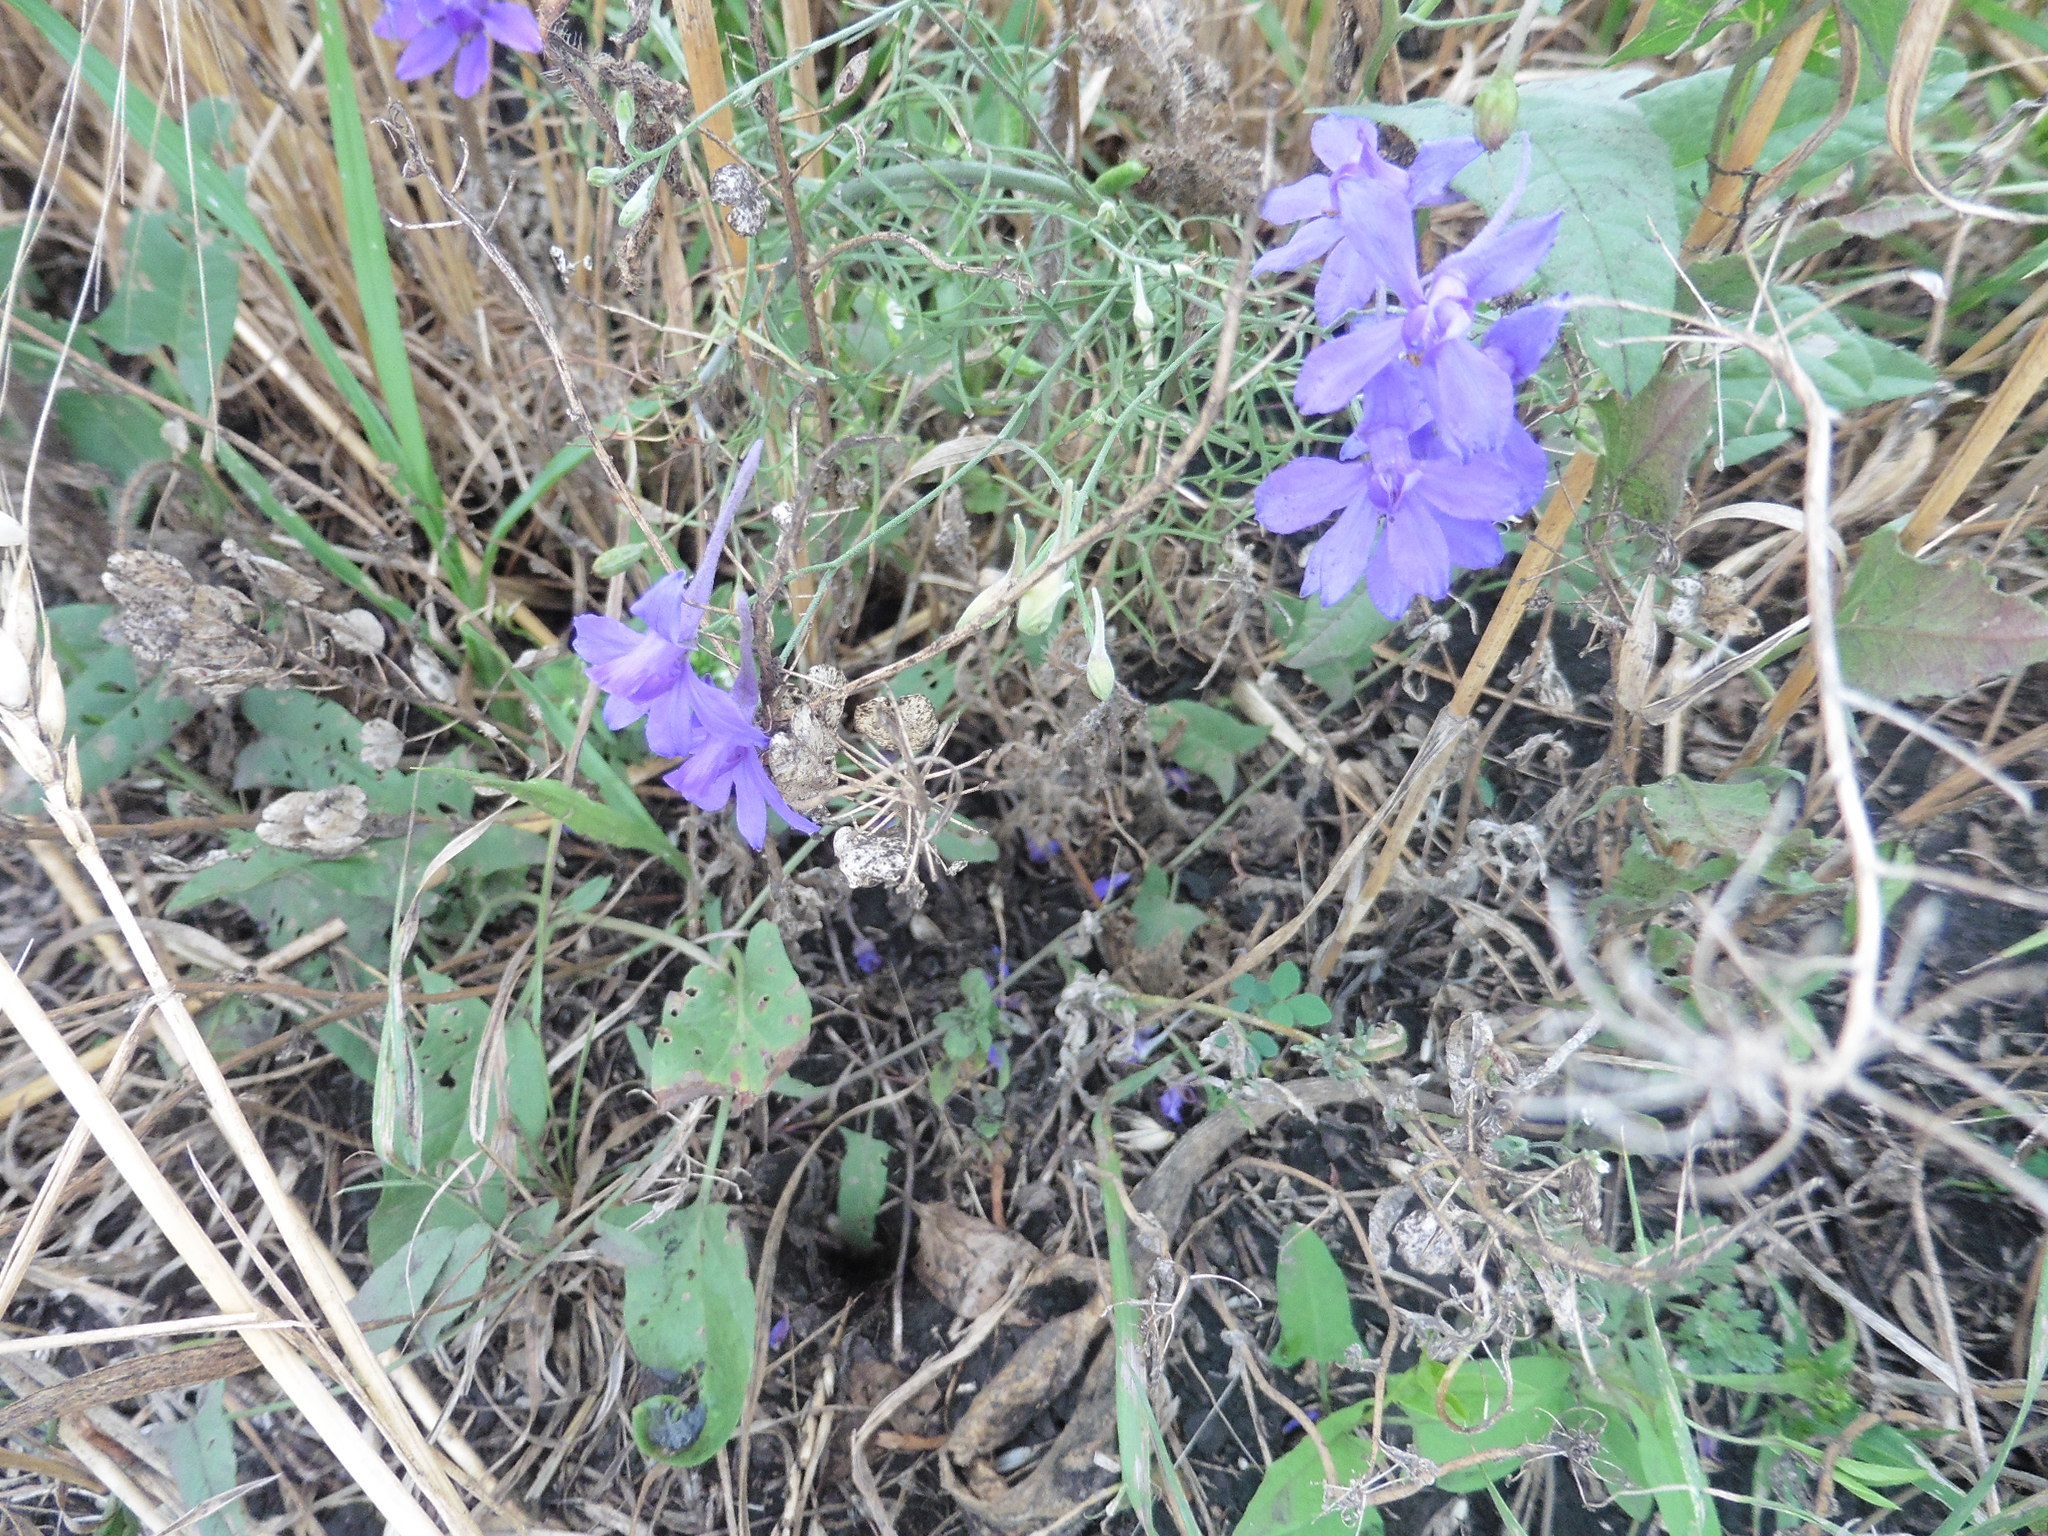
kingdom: Plantae
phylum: Tracheophyta
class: Magnoliopsida
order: Ranunculales
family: Ranunculaceae
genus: Delphinium
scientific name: Delphinium consolida
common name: Branching larkspur
